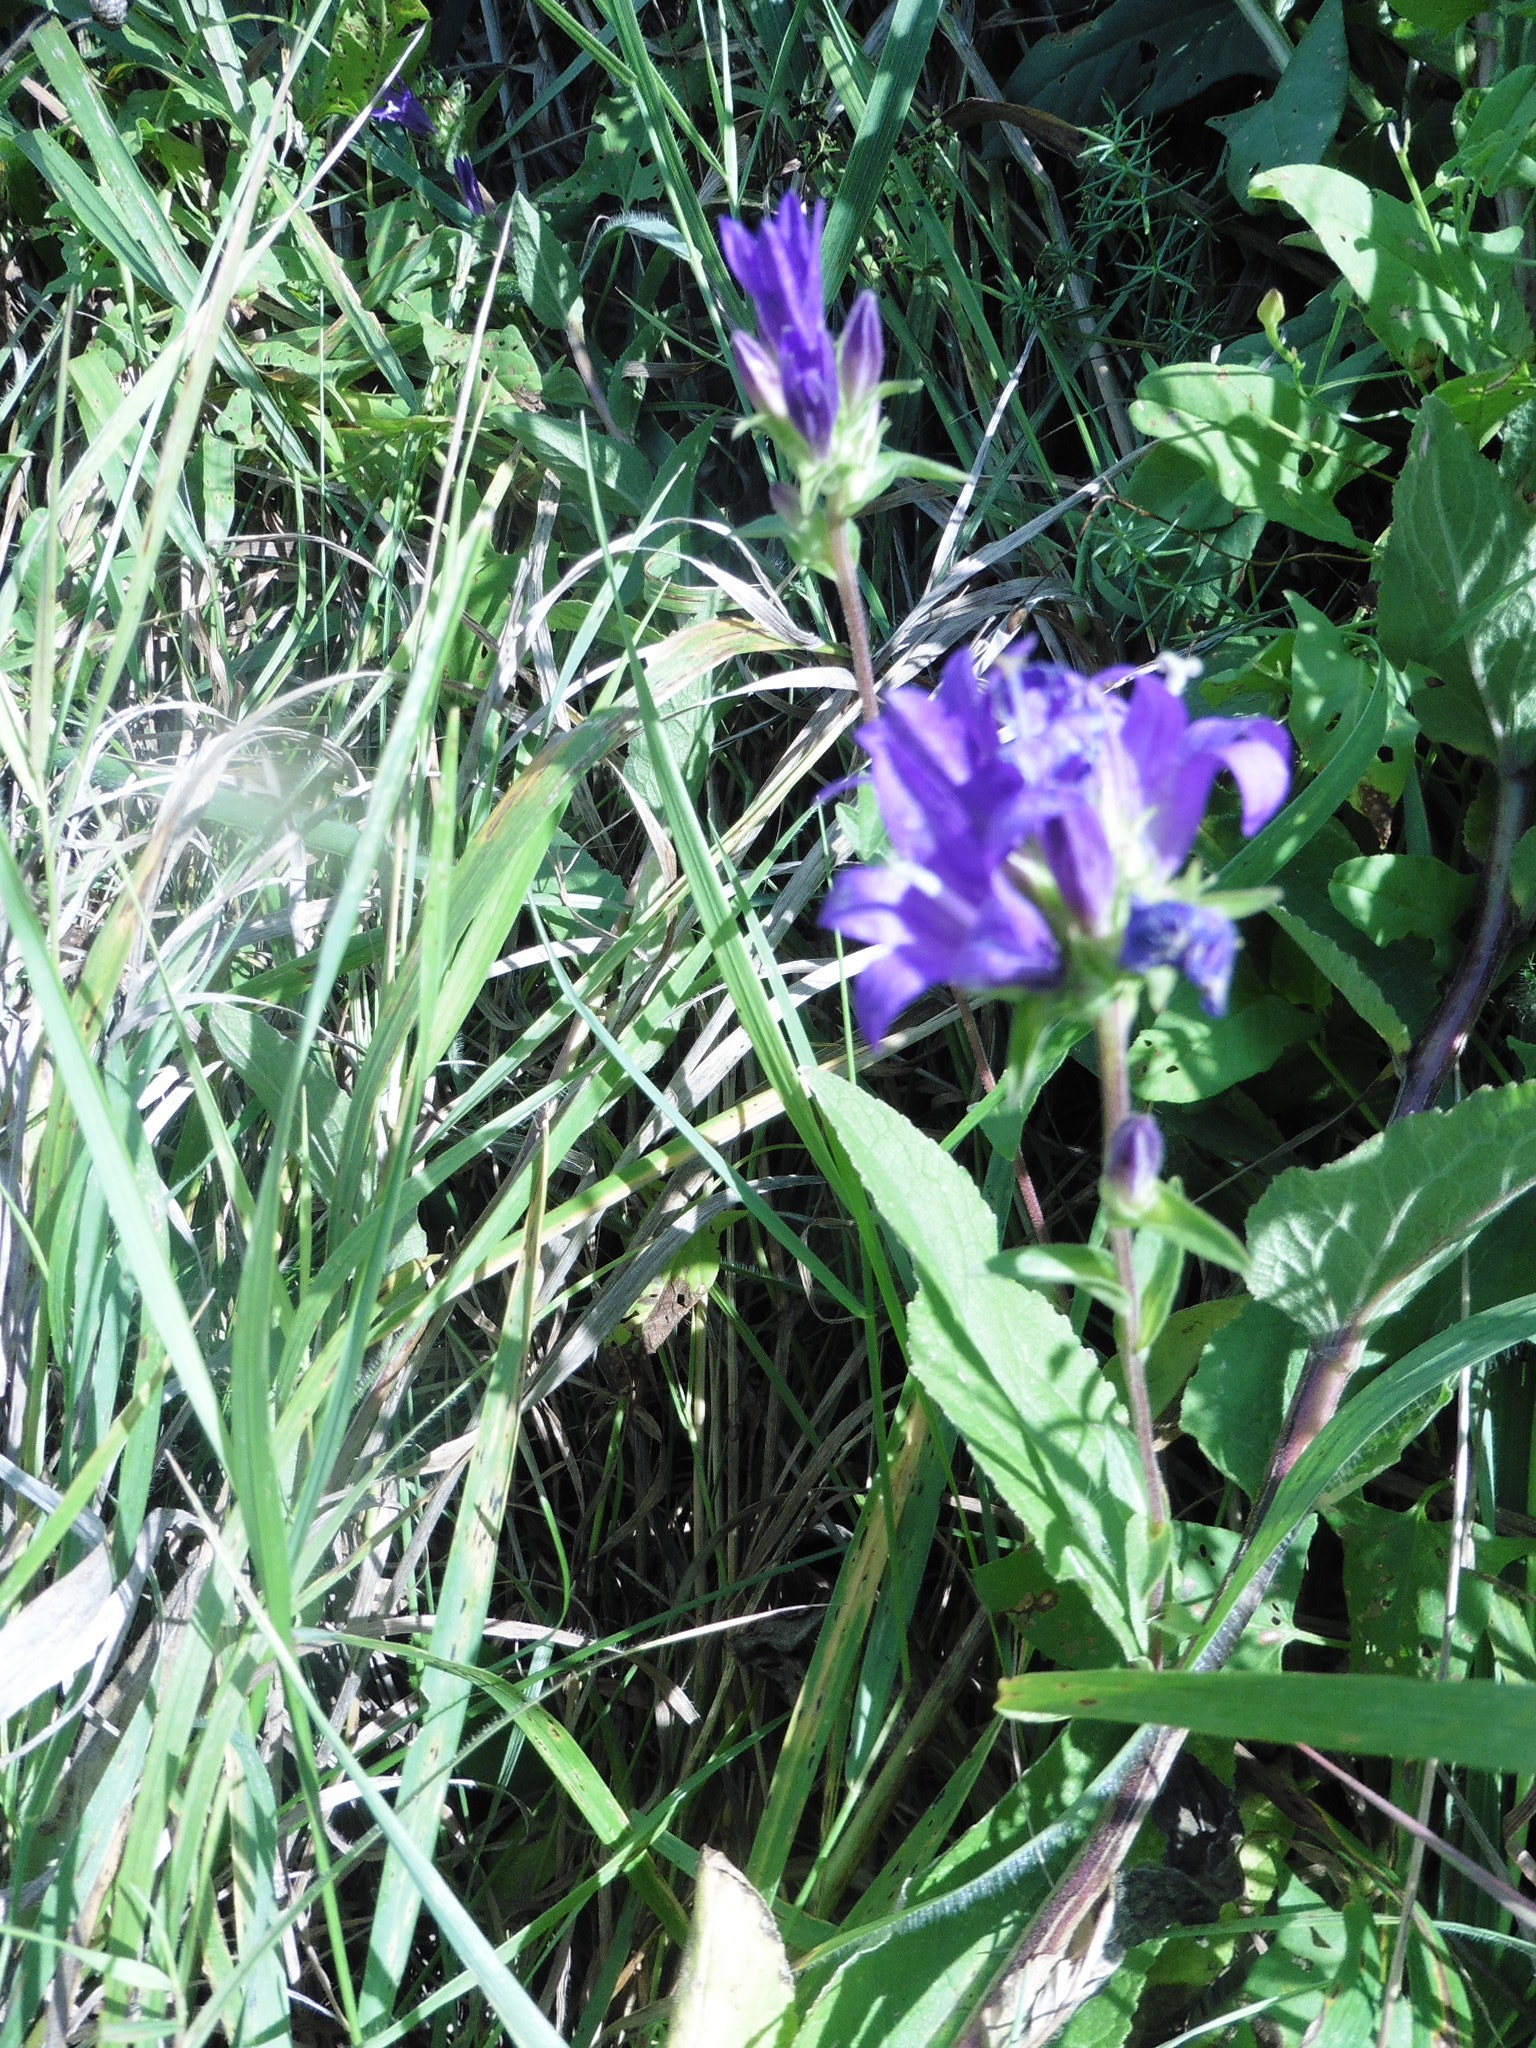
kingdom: Plantae
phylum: Tracheophyta
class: Magnoliopsida
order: Asterales
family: Campanulaceae
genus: Campanula
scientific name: Campanula glomerata
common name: Clustered bellflower
